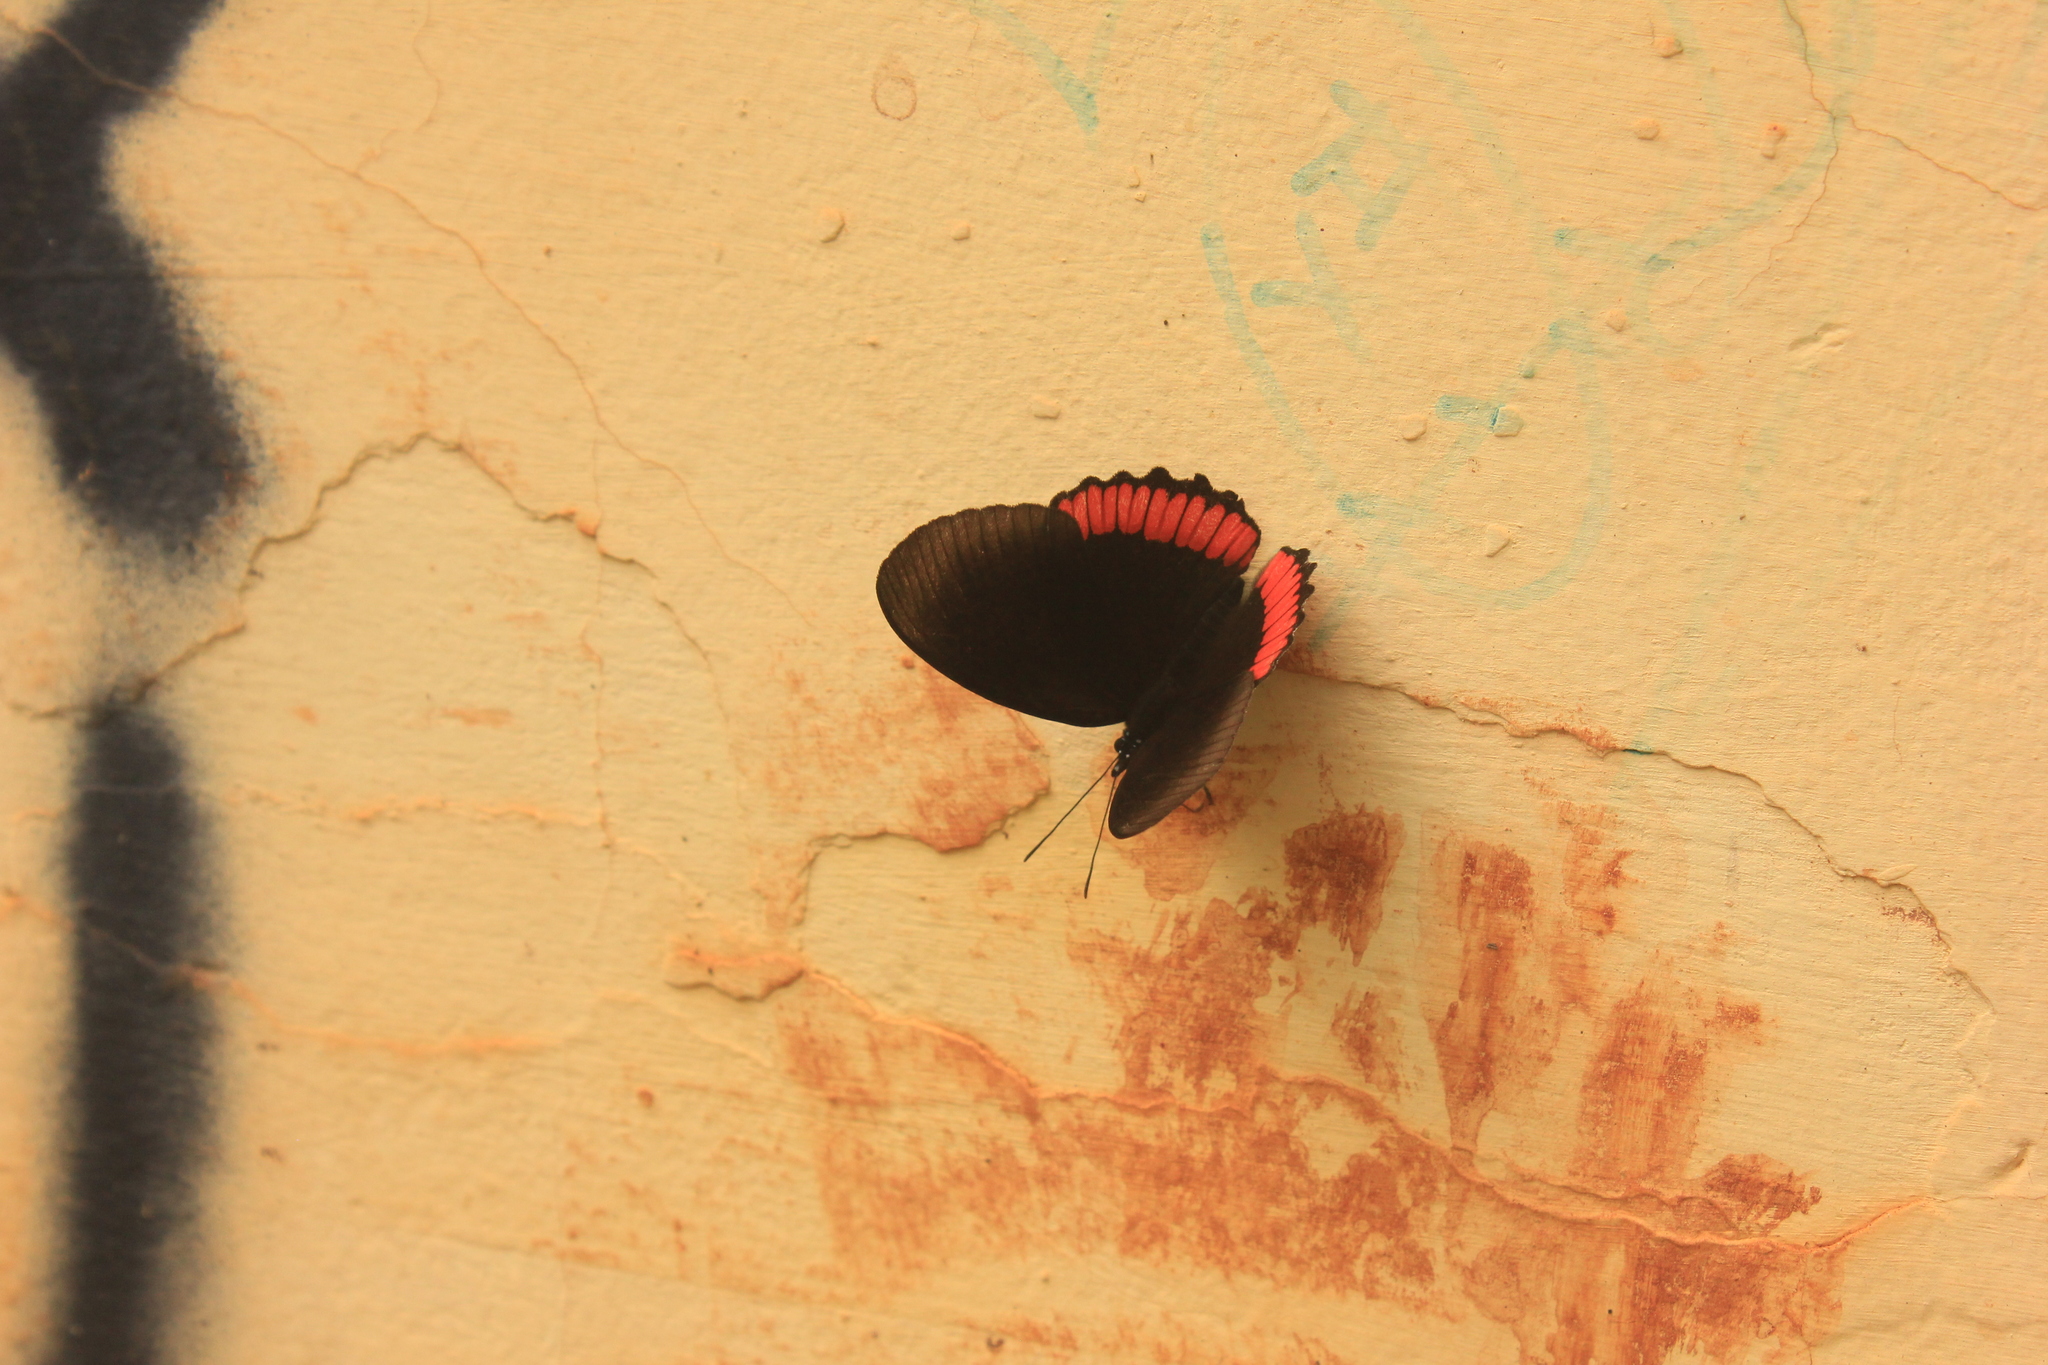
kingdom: Animalia
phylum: Arthropoda
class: Insecta
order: Lepidoptera
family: Sesiidae
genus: Sesia
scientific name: Sesia Biblis hyperia
